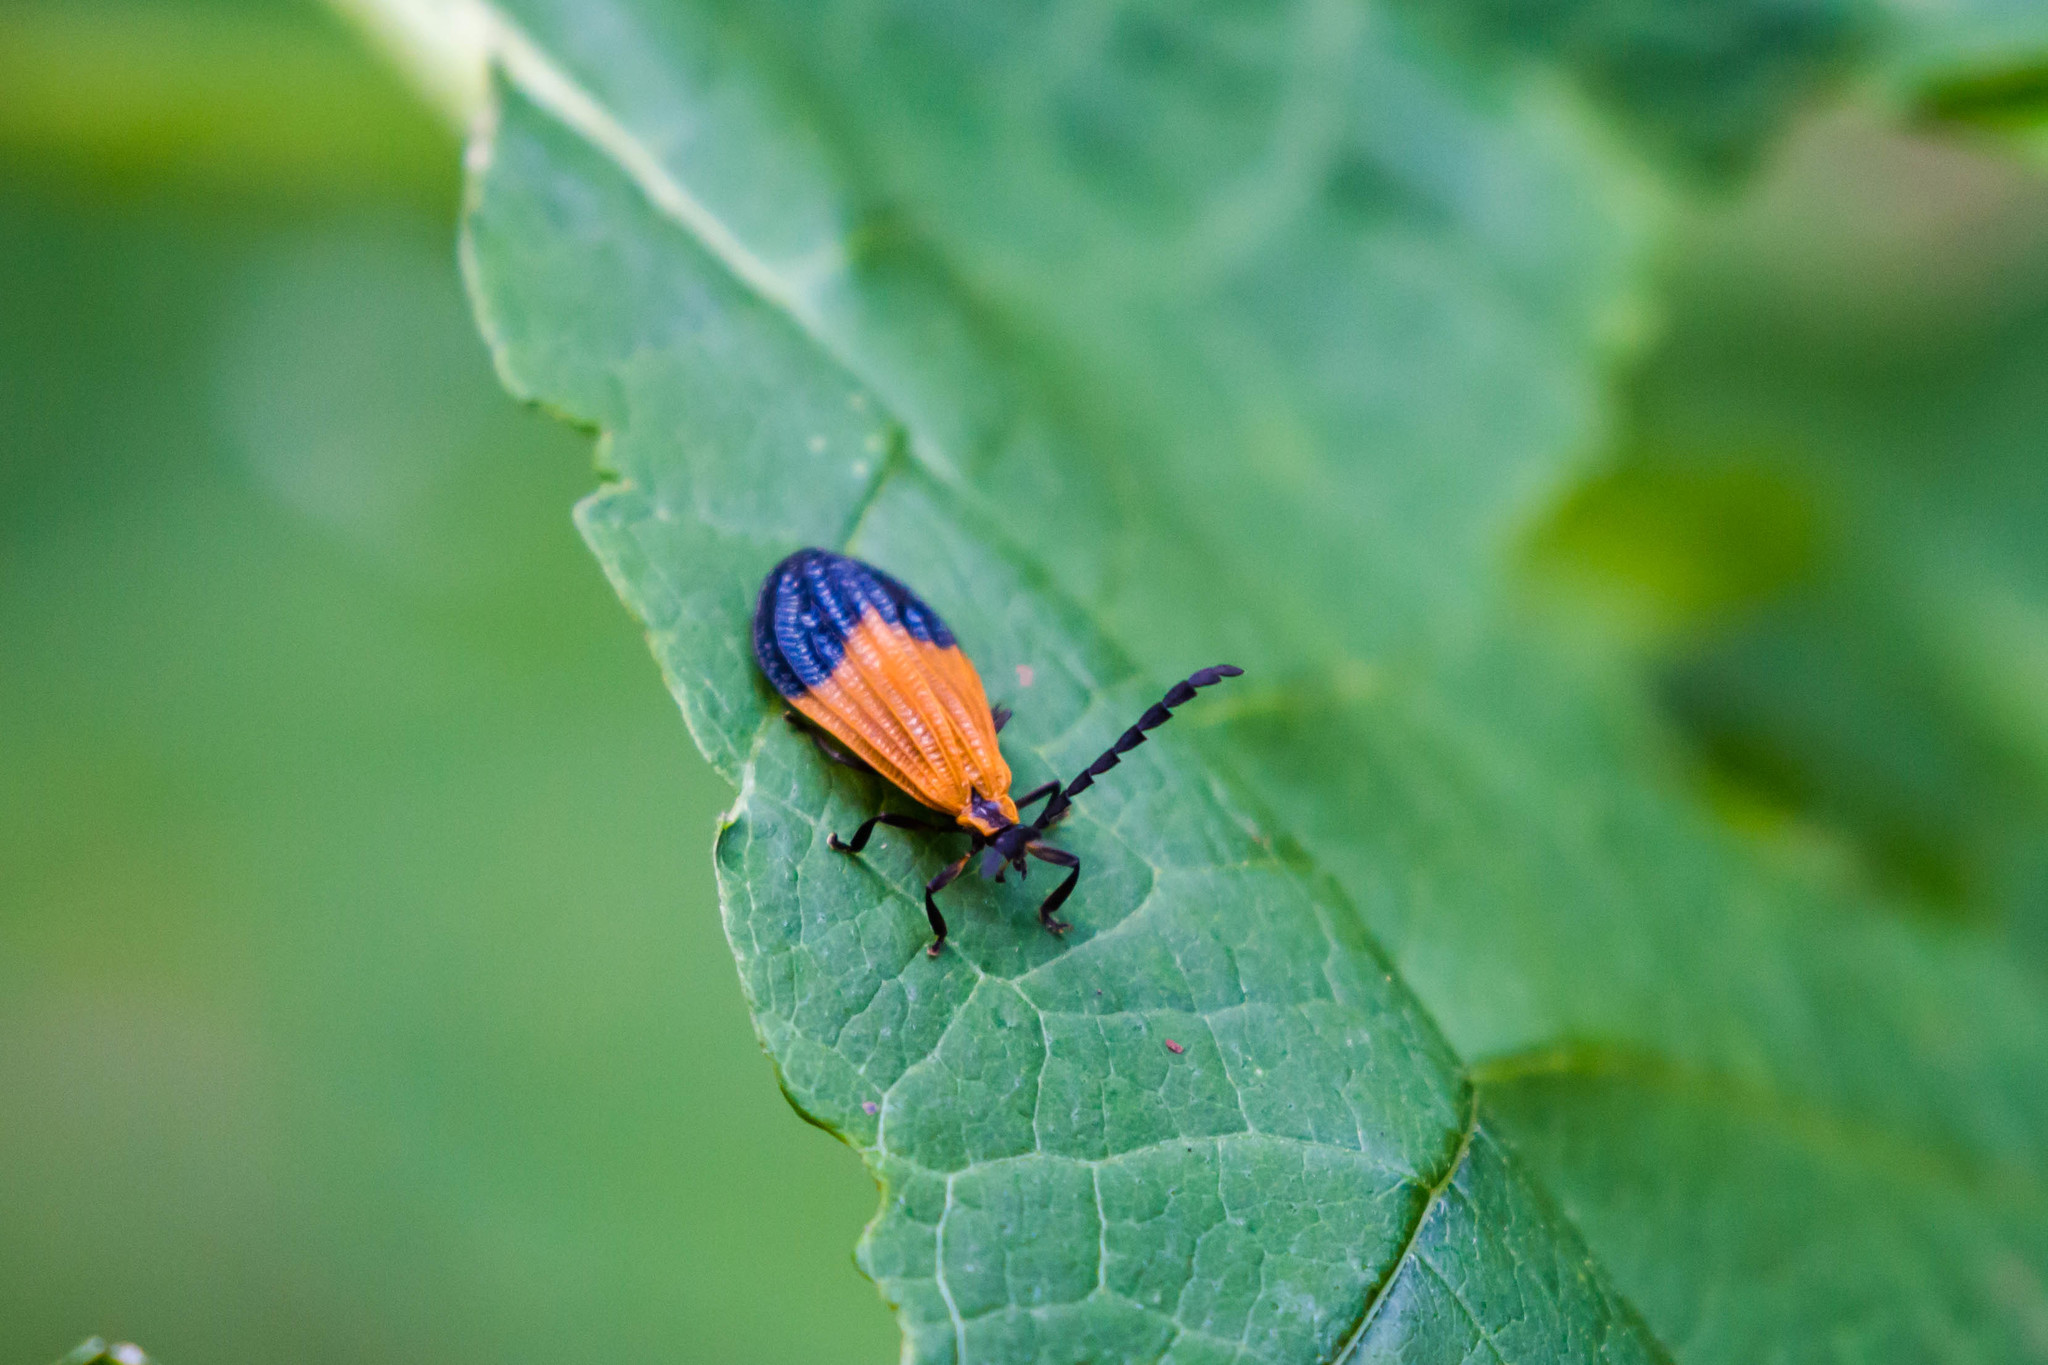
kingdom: Animalia
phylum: Arthropoda
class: Insecta
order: Coleoptera
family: Lycidae
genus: Calopteron
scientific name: Calopteron terminale
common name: End band net-winged beetle
